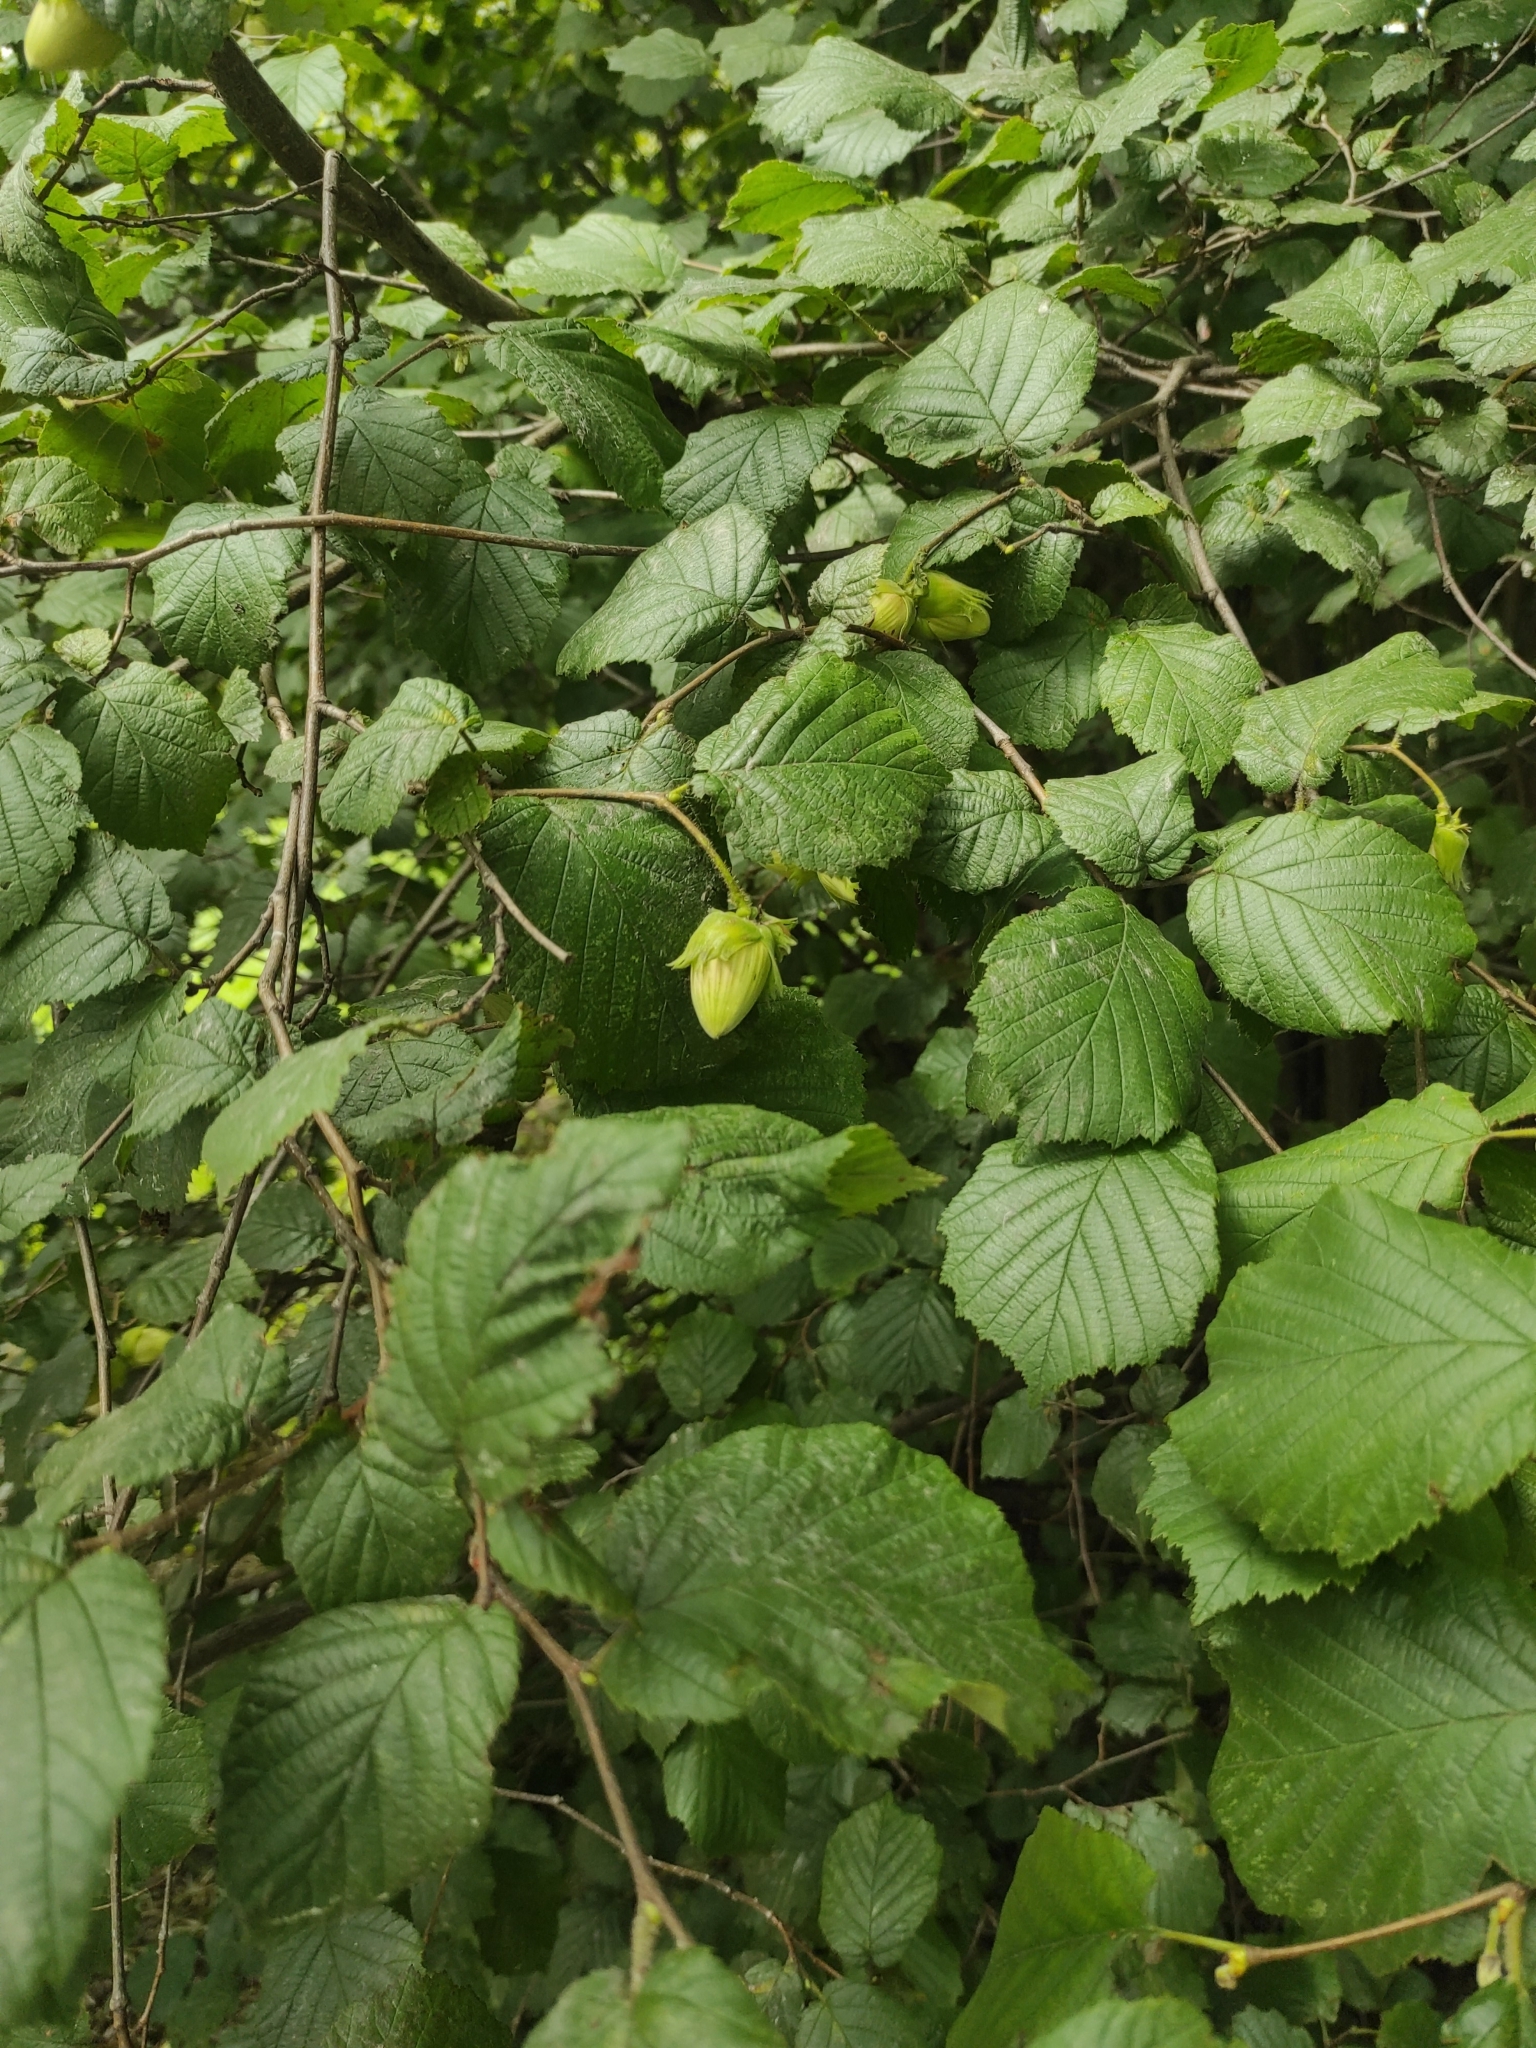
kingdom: Plantae
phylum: Tracheophyta
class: Magnoliopsida
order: Fagales
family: Betulaceae
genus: Corylus
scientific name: Corylus avellana
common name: European hazel
